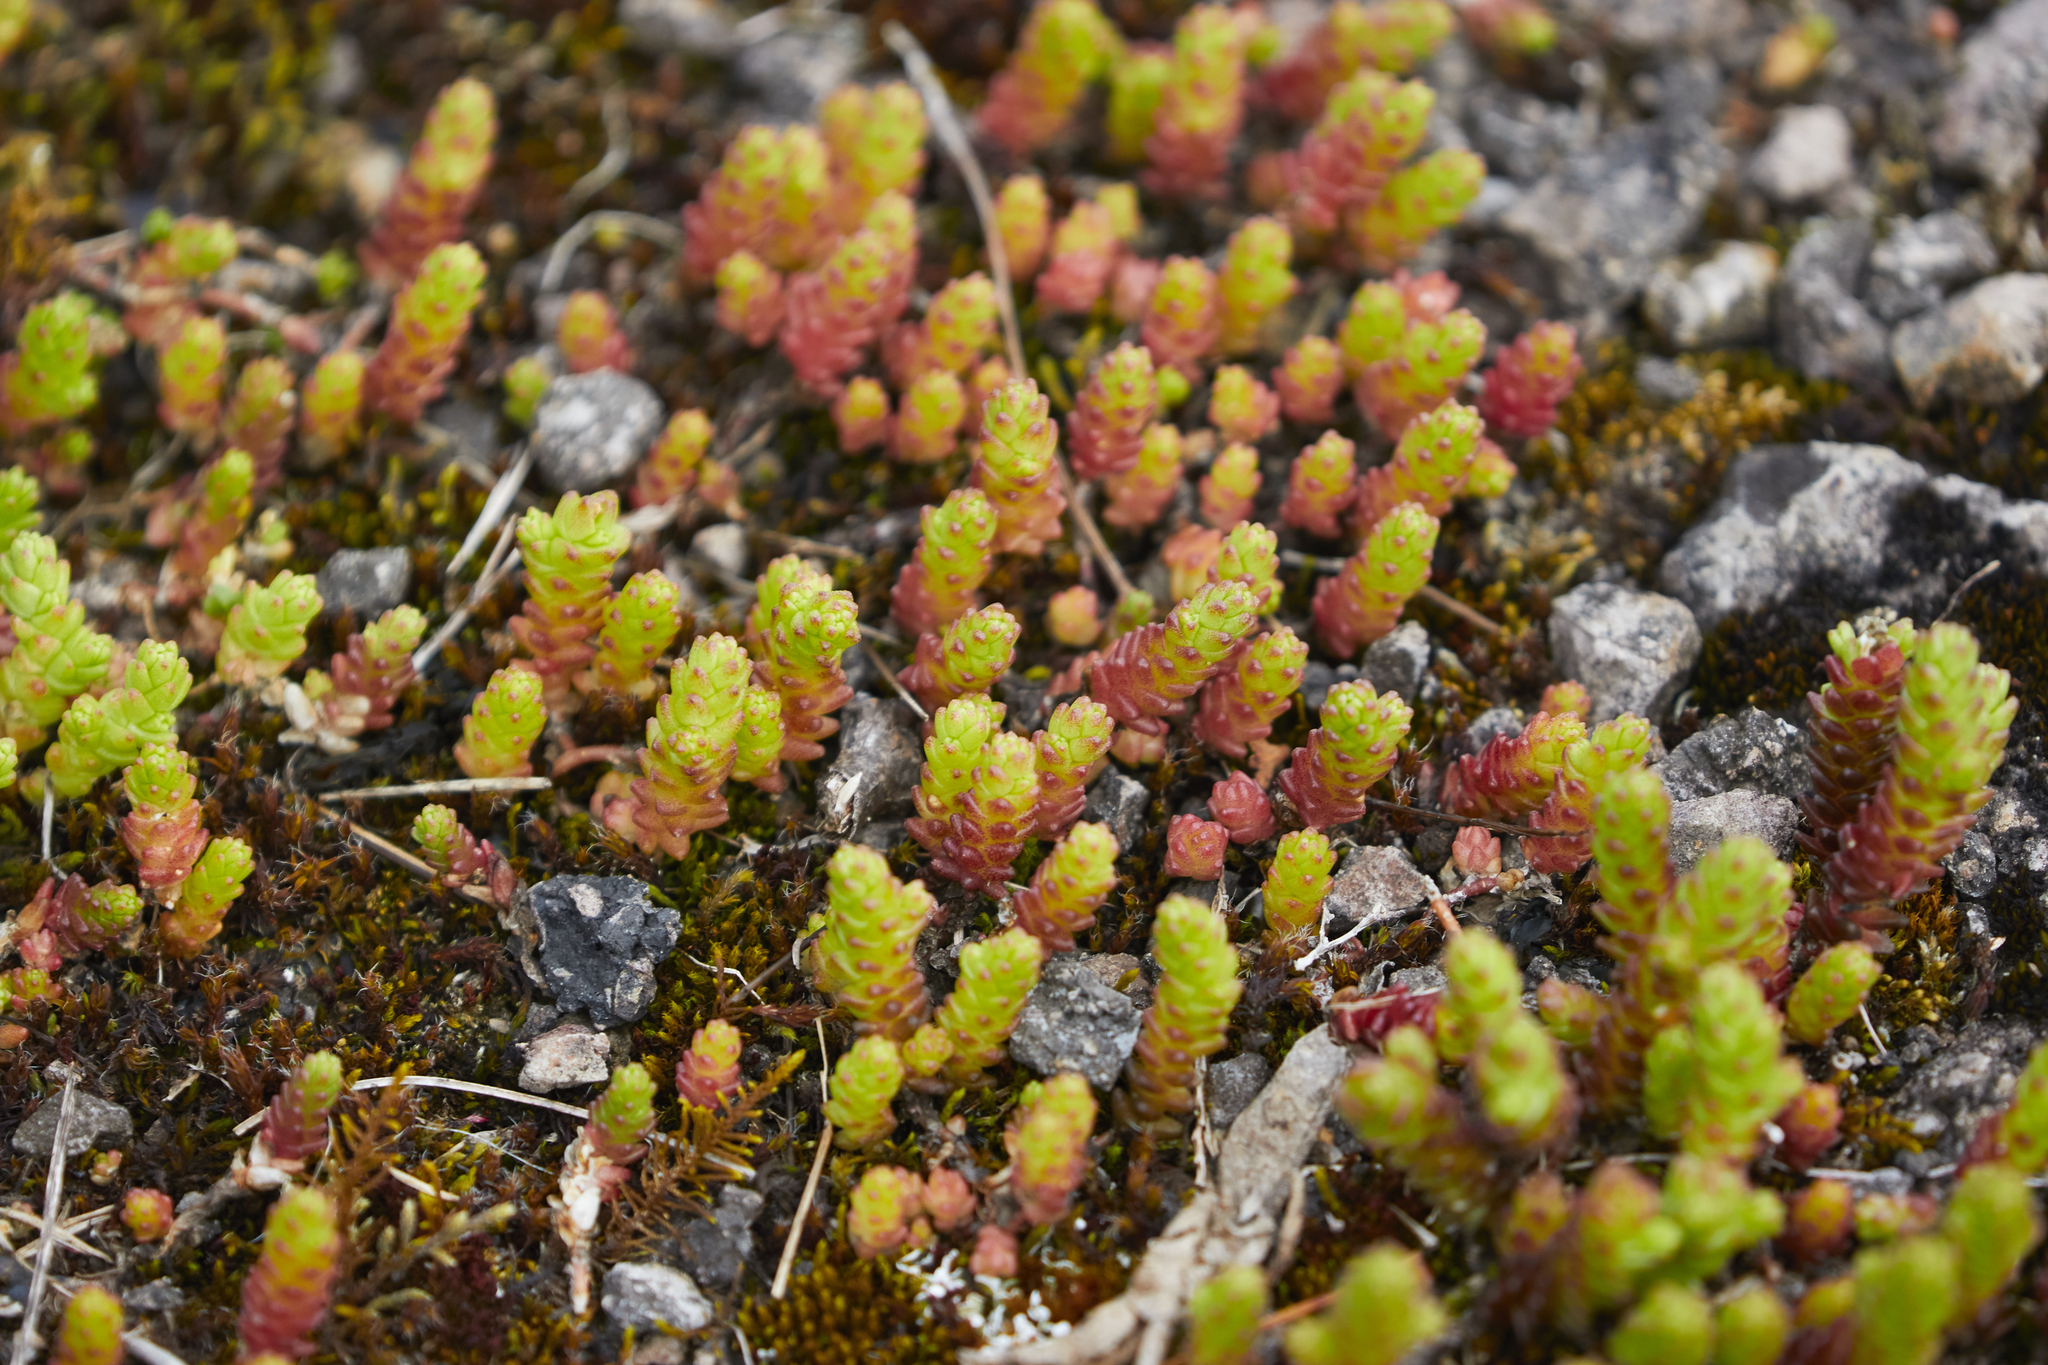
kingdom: Plantae
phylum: Tracheophyta
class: Magnoliopsida
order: Saxifragales
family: Crassulaceae
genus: Sedum
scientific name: Sedum acre
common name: Biting stonecrop
